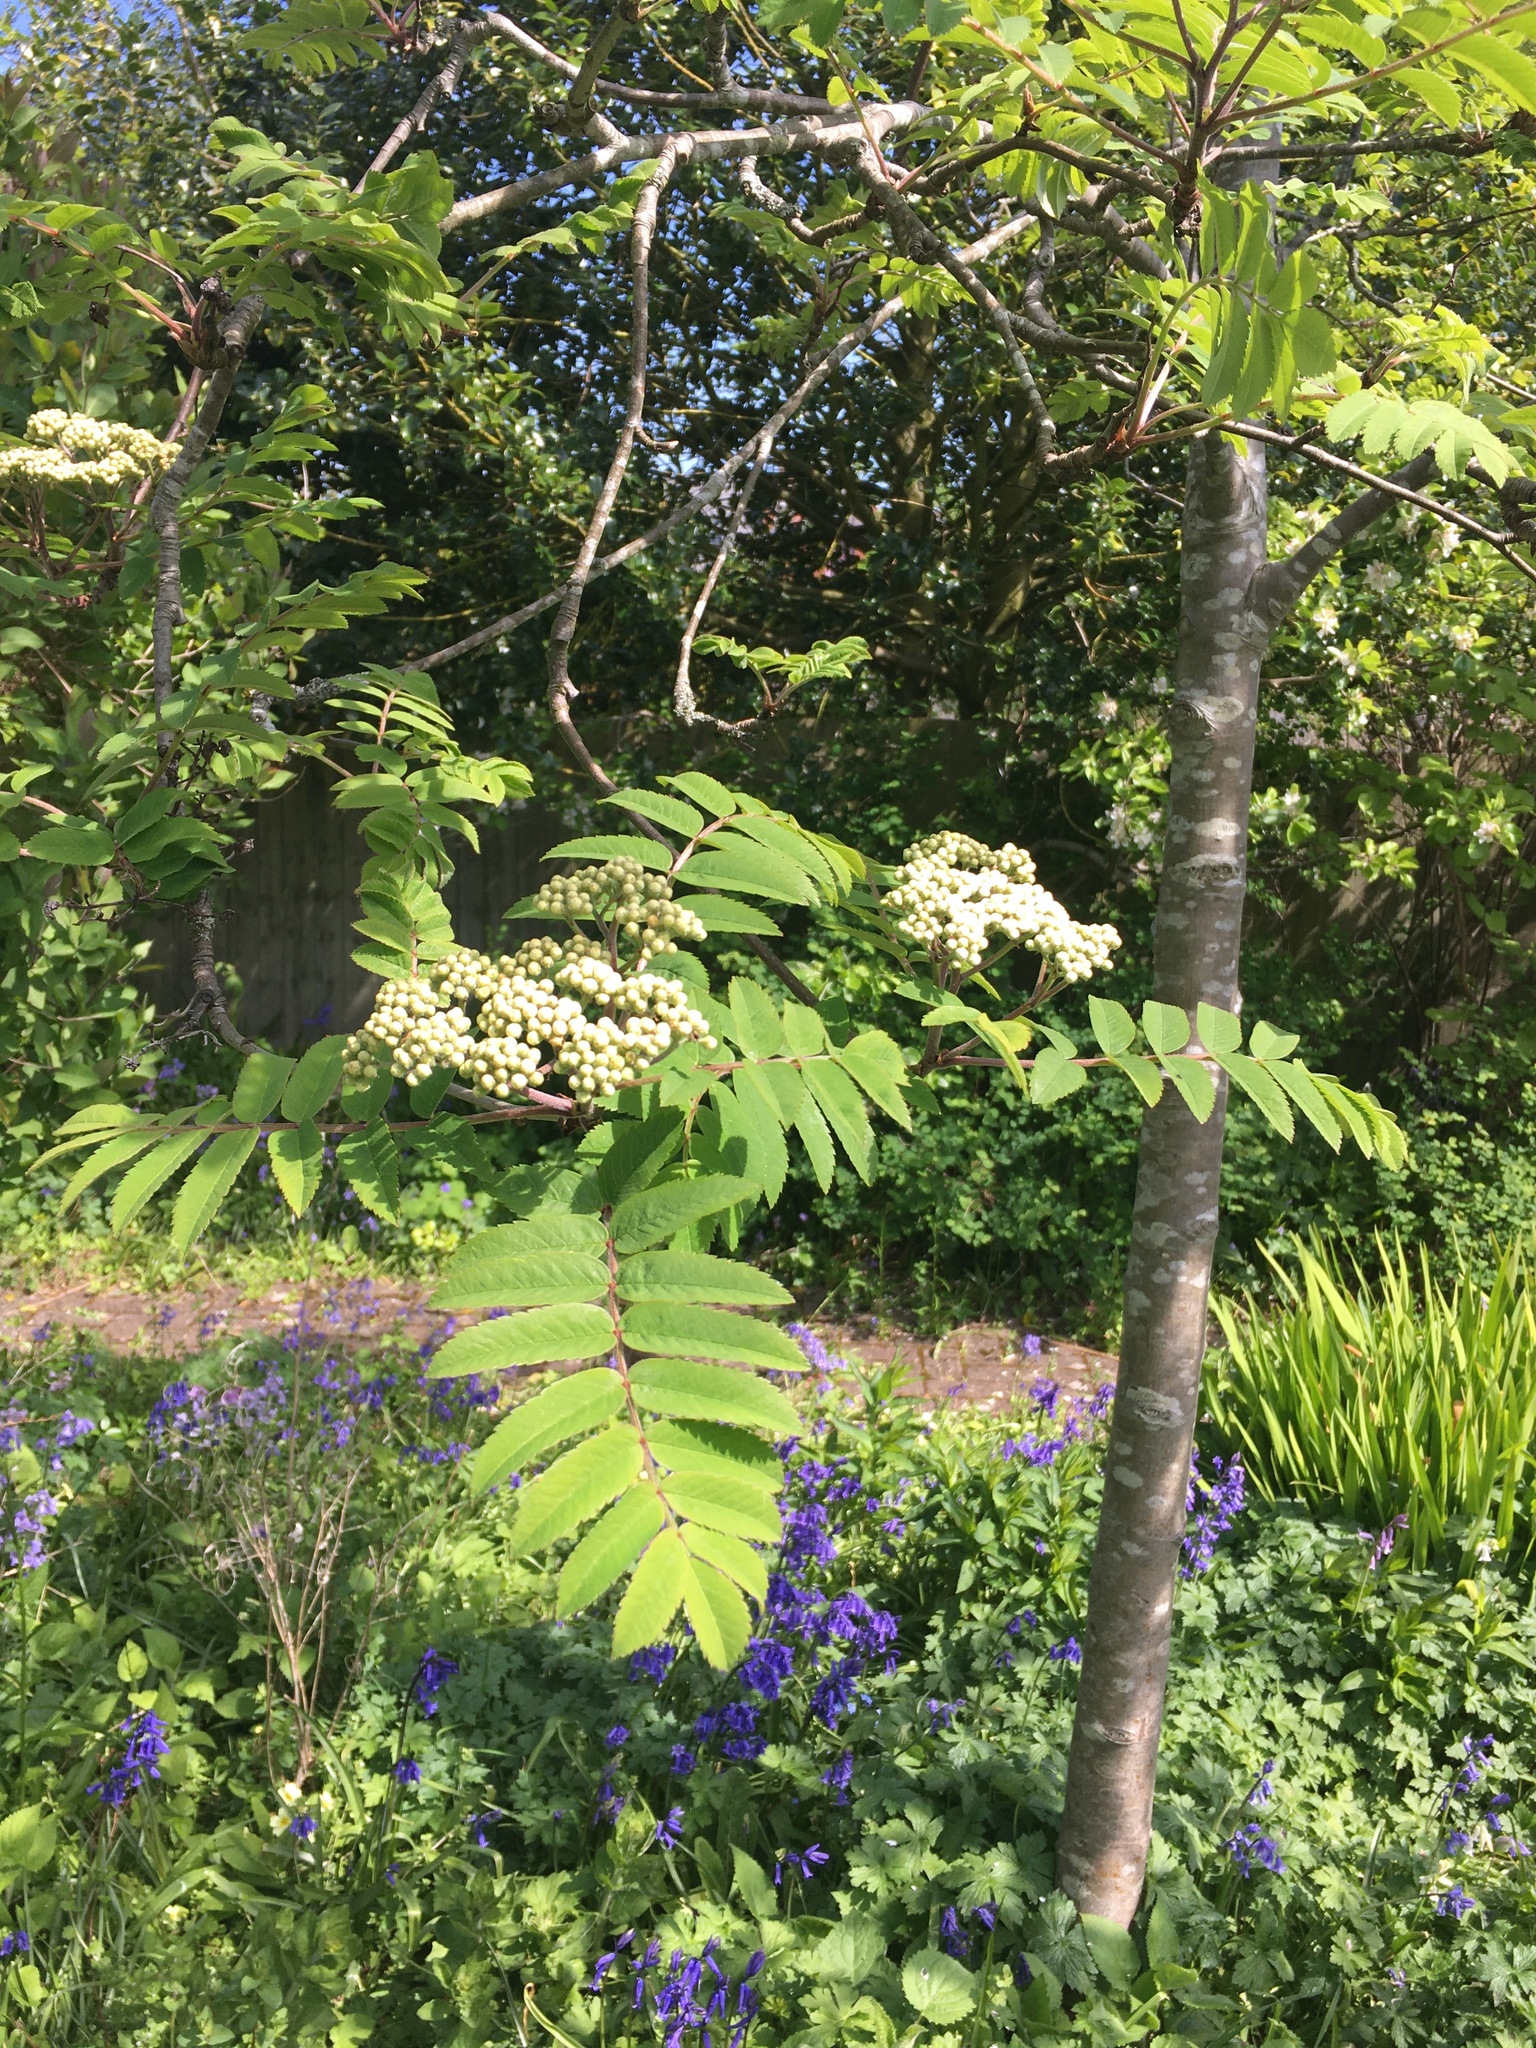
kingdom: Plantae
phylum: Tracheophyta
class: Magnoliopsida
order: Rosales
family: Rosaceae
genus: Sorbus
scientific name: Sorbus aucuparia
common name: Rowan
